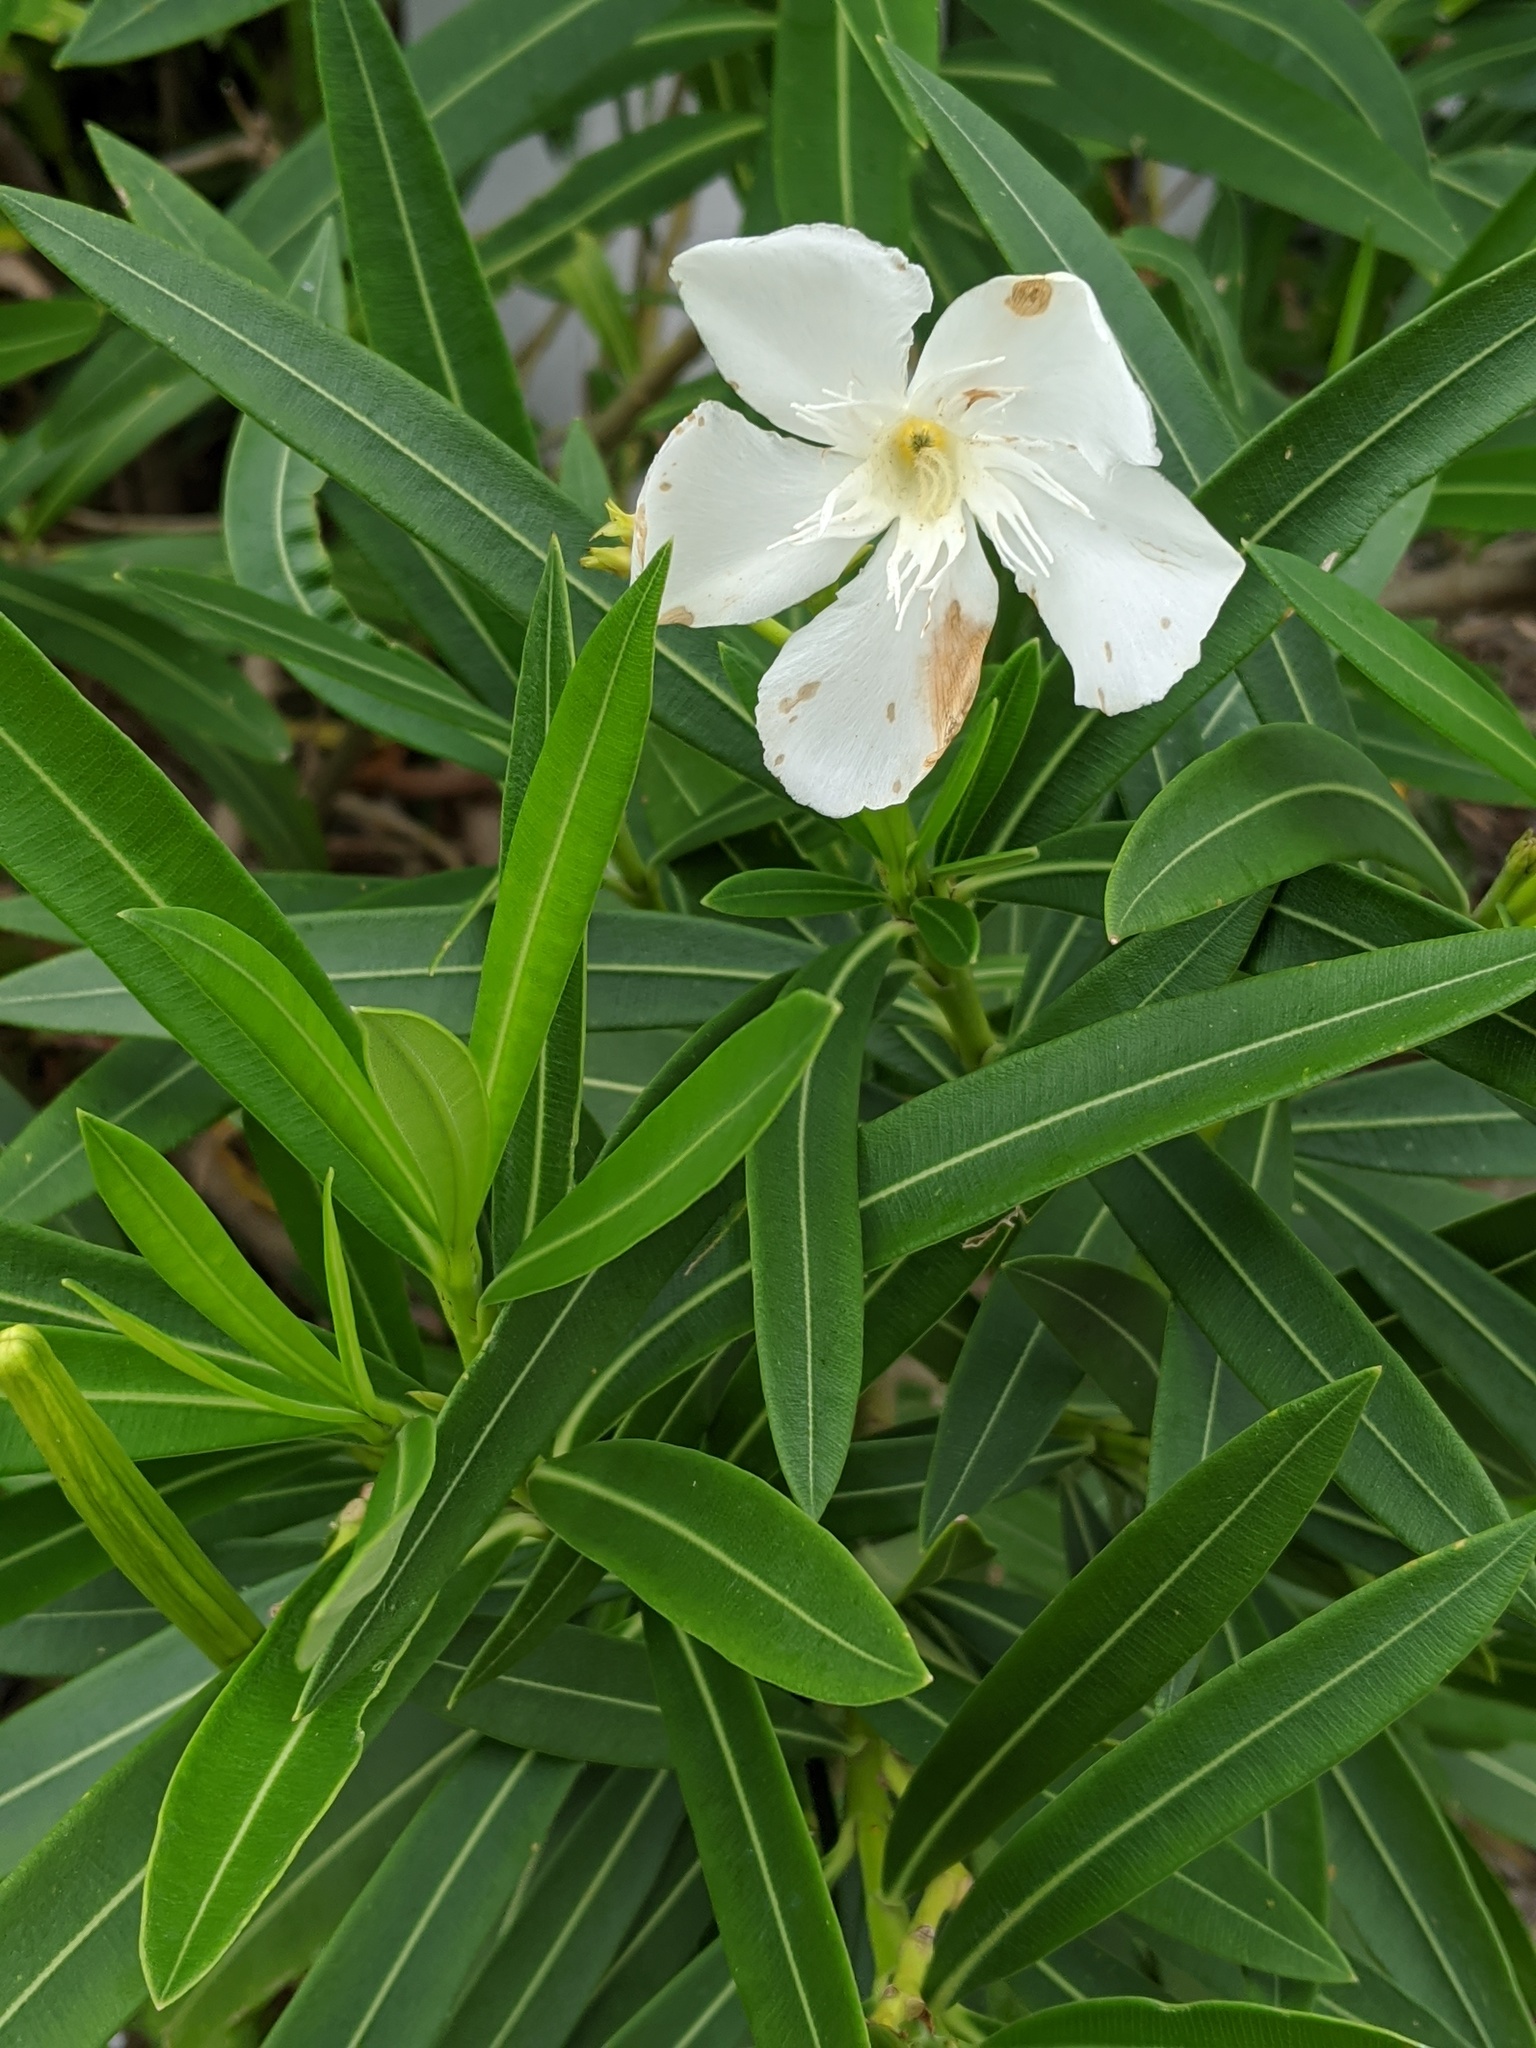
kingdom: Plantae
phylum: Tracheophyta
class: Magnoliopsida
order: Gentianales
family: Apocynaceae
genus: Nerium
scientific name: Nerium oleander
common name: Oleander
